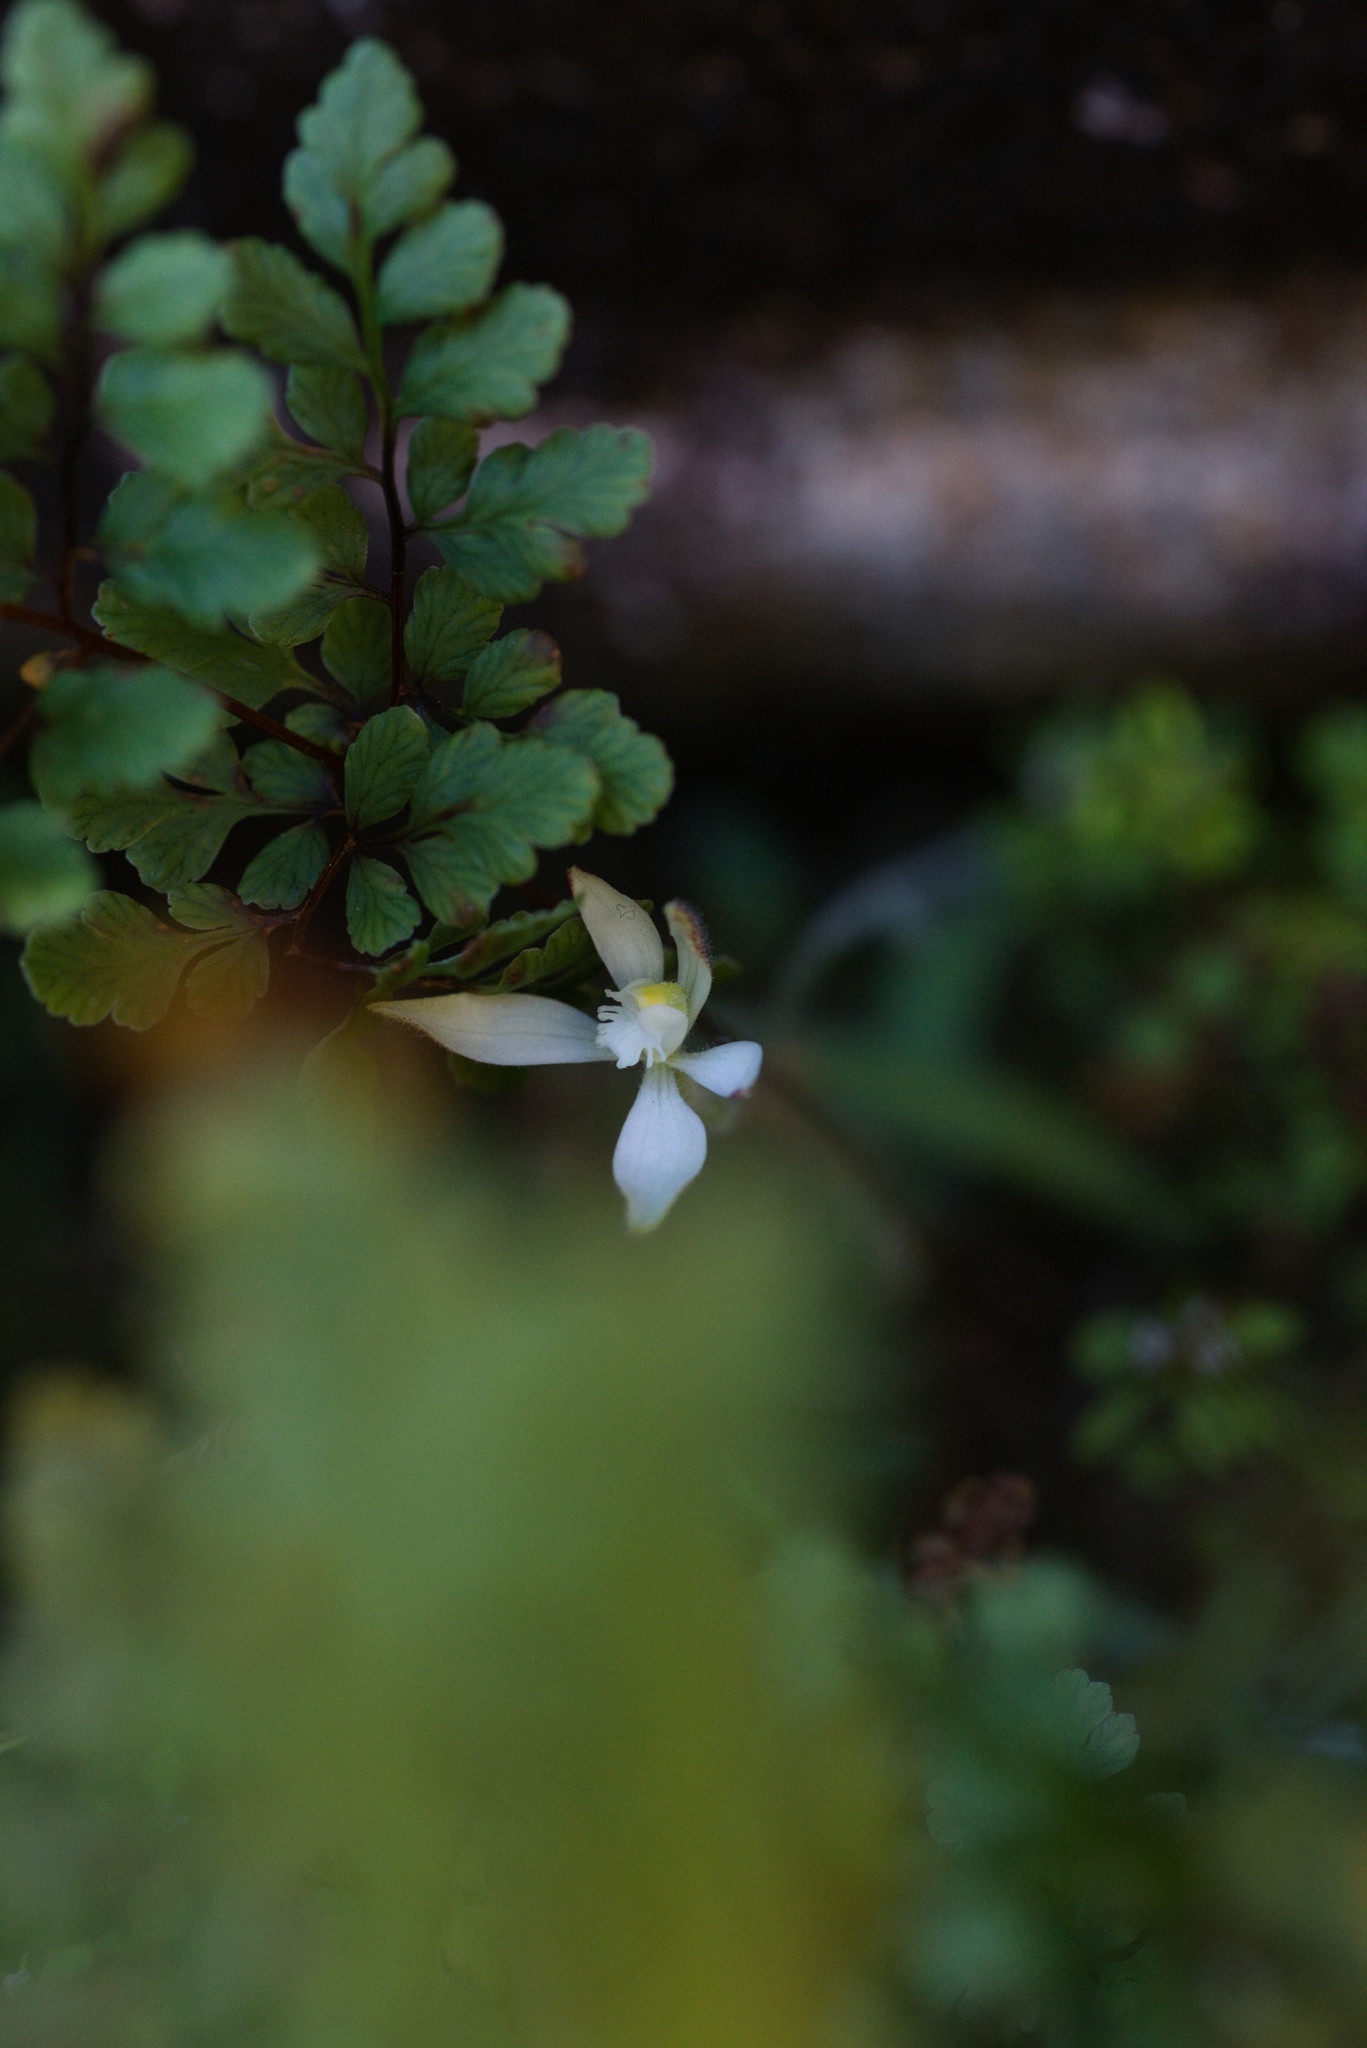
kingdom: Plantae
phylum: Tracheophyta
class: Liliopsida
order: Asparagales
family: Orchidaceae
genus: Caladenia
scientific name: Caladenia marginata
